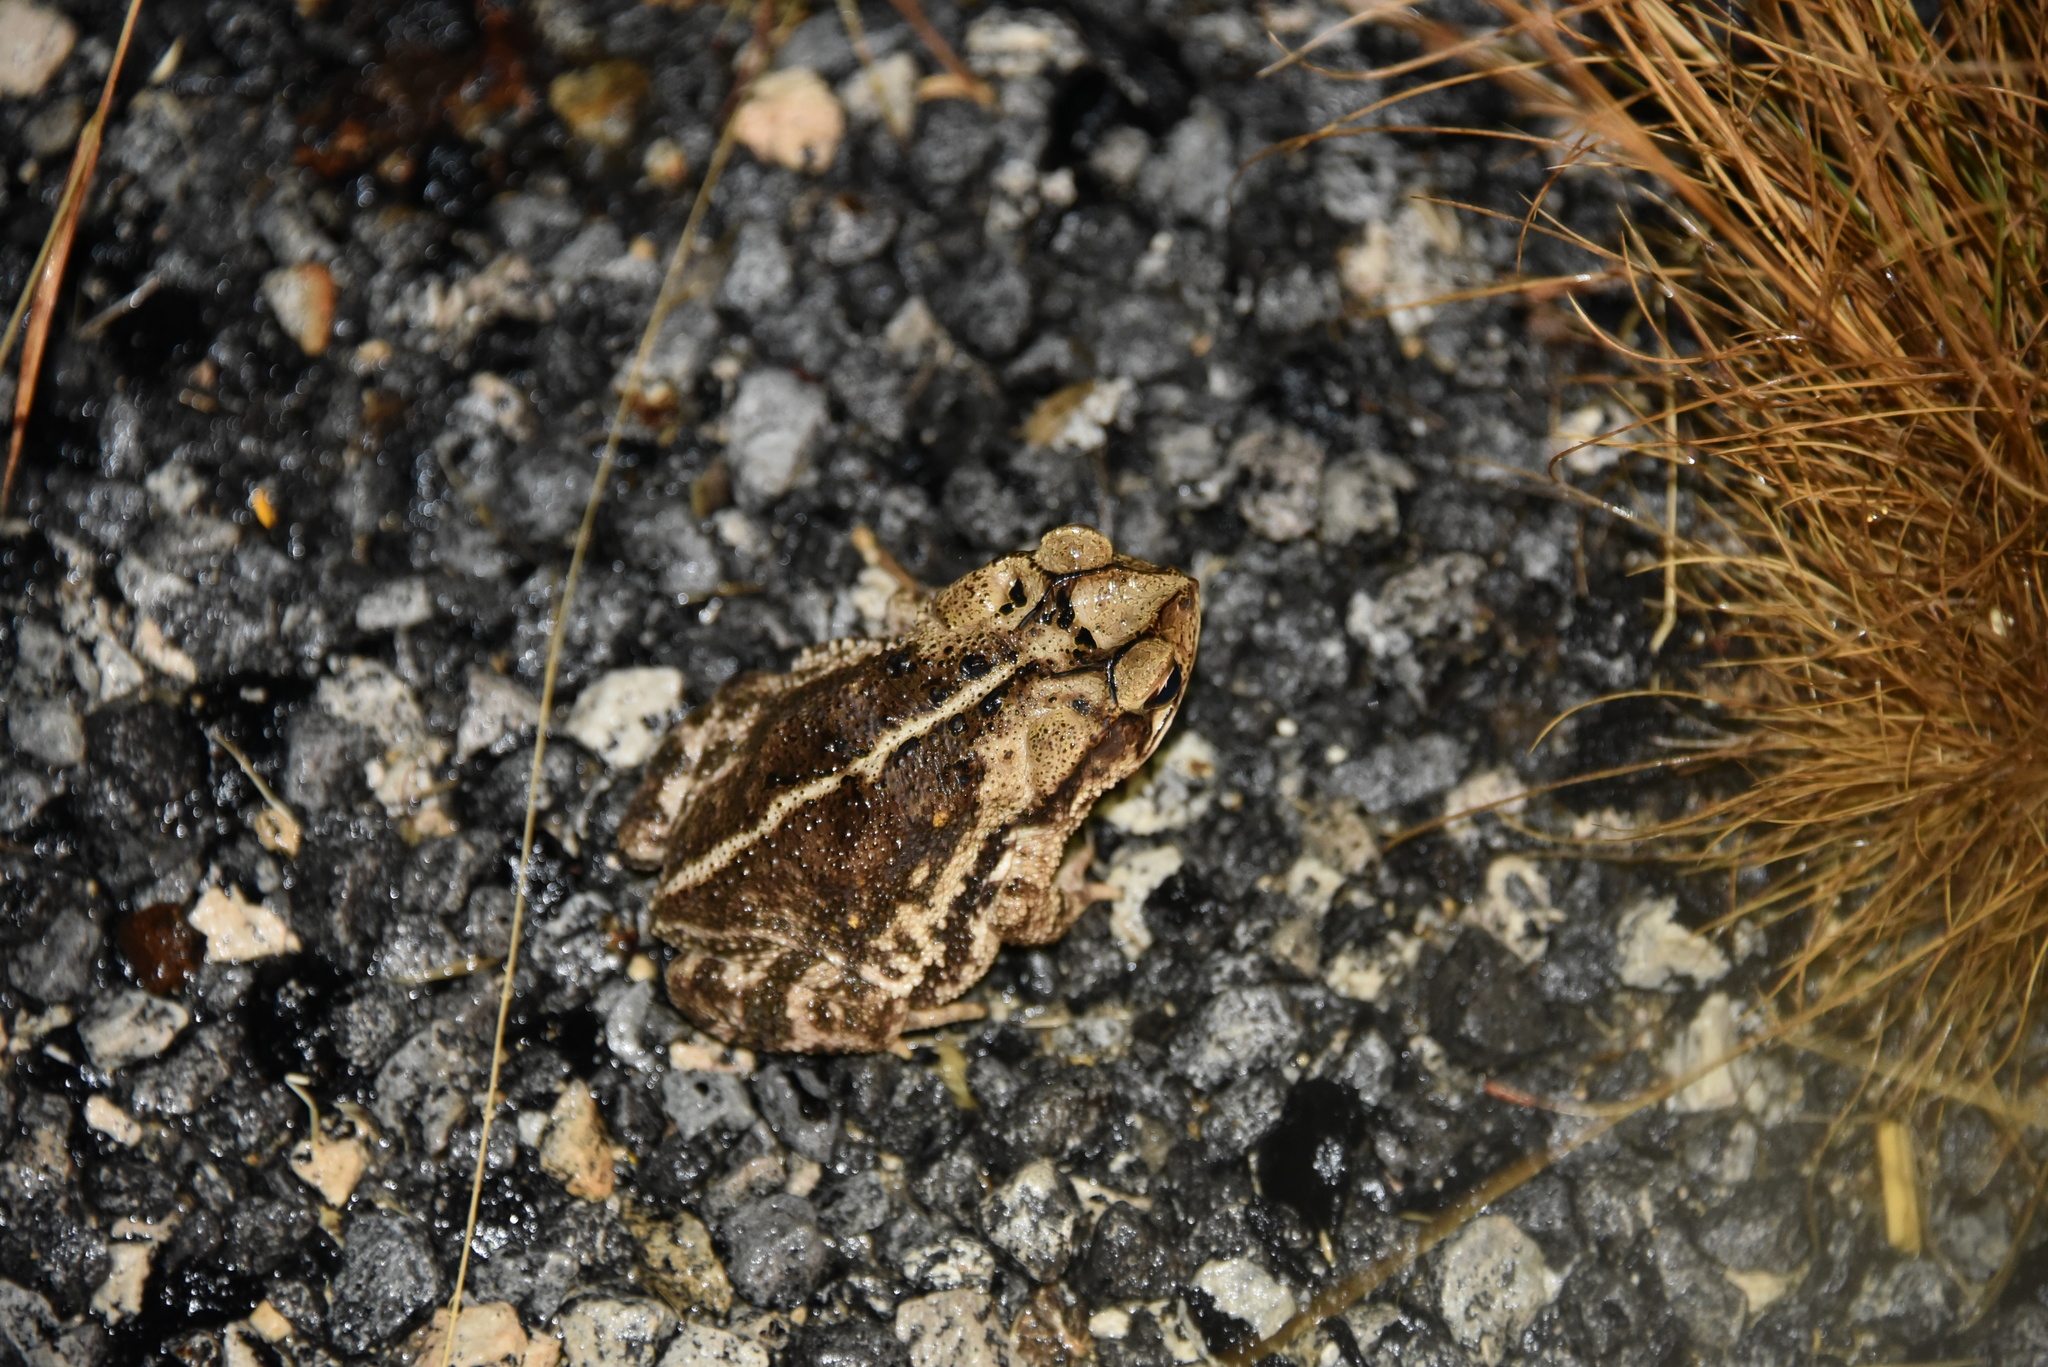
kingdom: Animalia
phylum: Chordata
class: Amphibia
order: Anura
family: Bufonidae
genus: Incilius
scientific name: Incilius nebulifer
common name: Gulf coast toad
